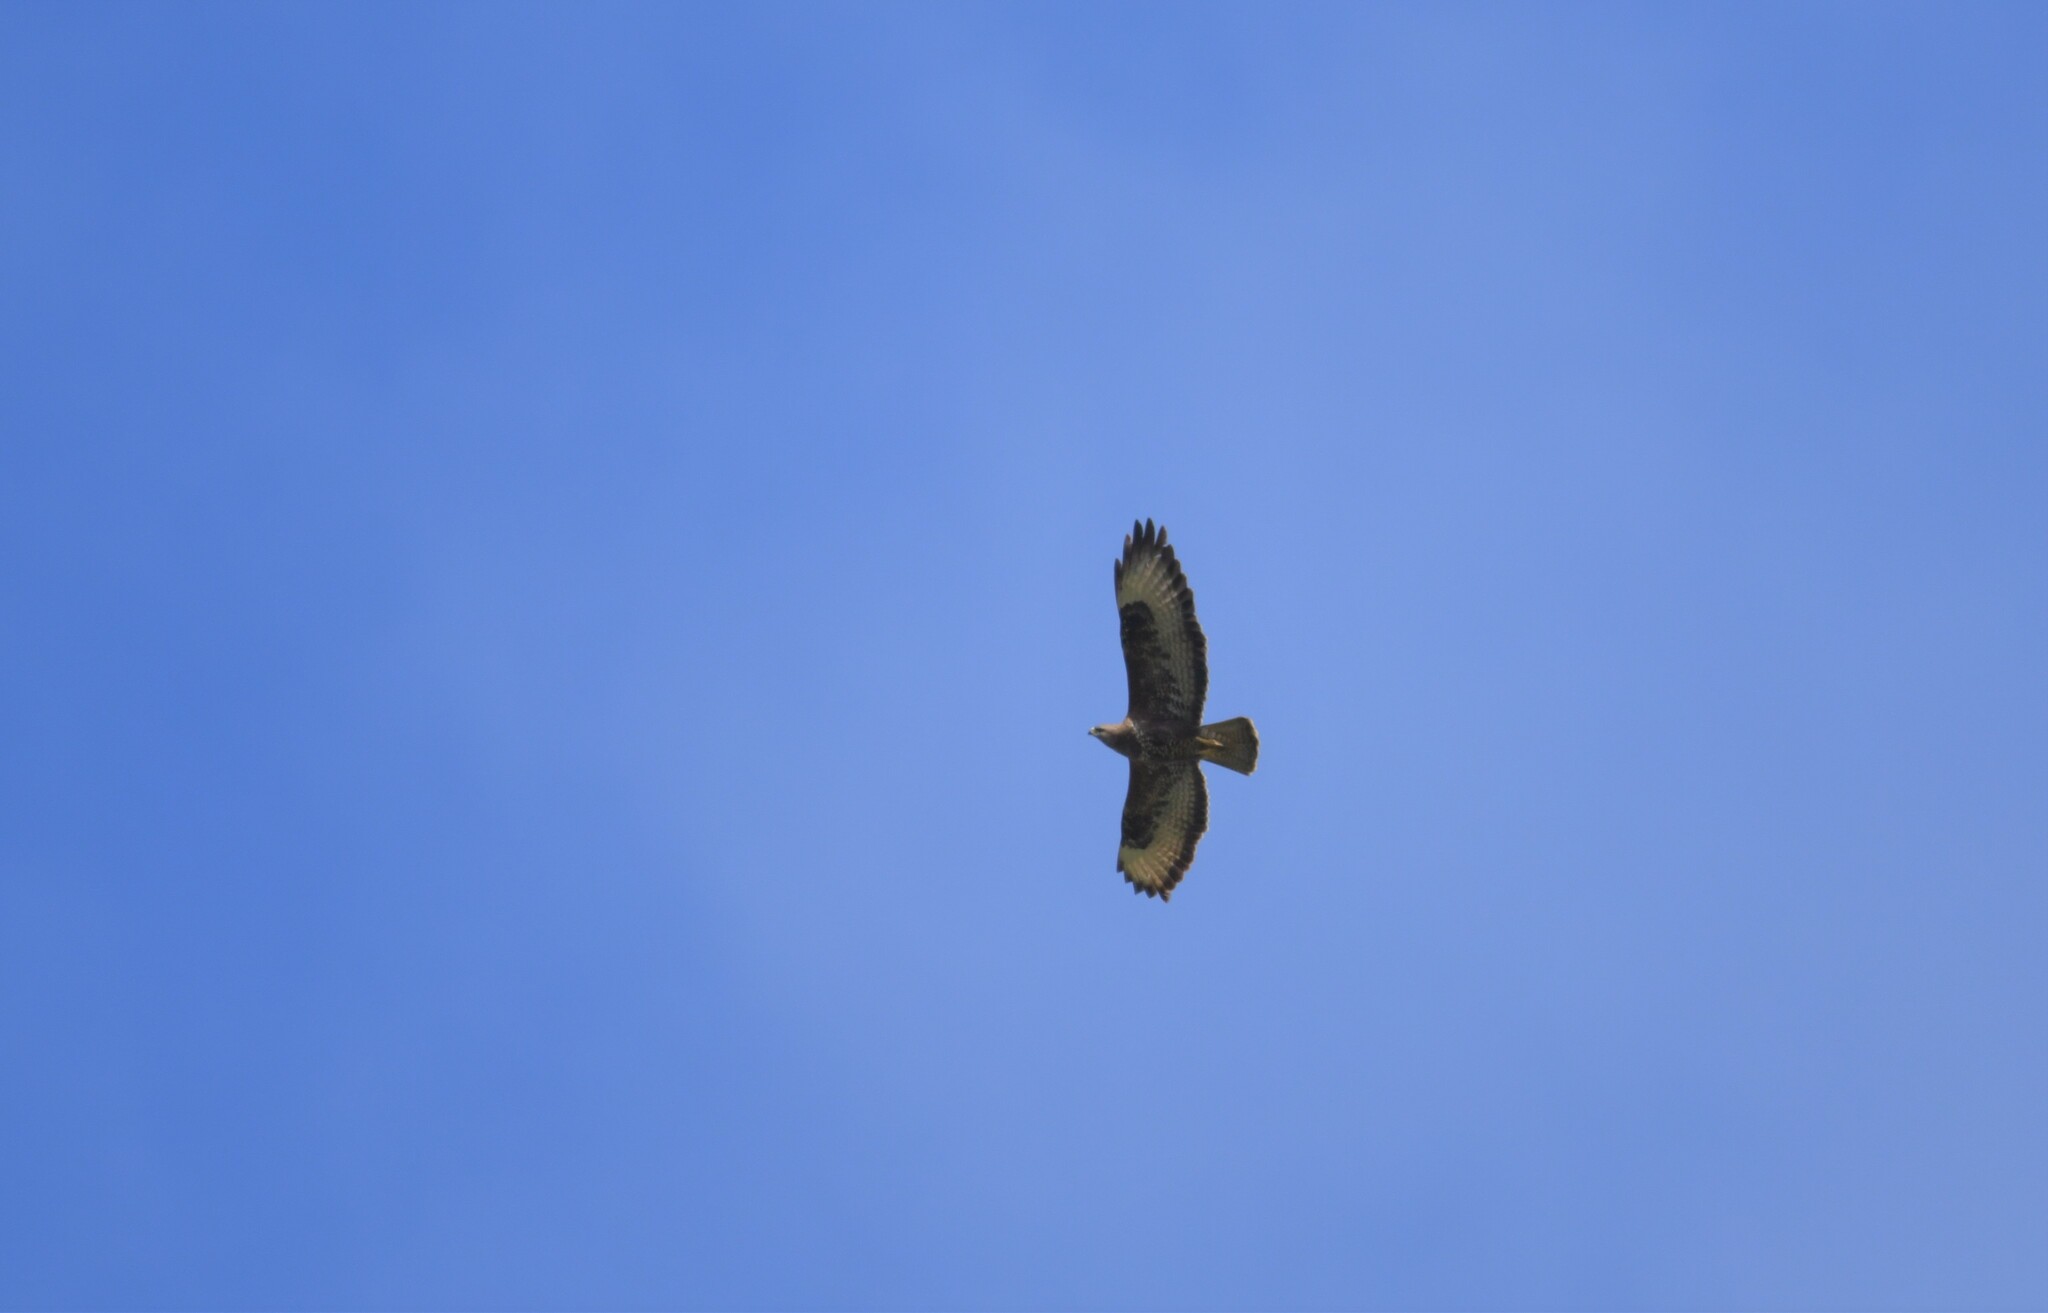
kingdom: Animalia
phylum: Chordata
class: Aves
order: Accipitriformes
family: Accipitridae
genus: Buteo
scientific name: Buteo buteo
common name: Common buzzard
